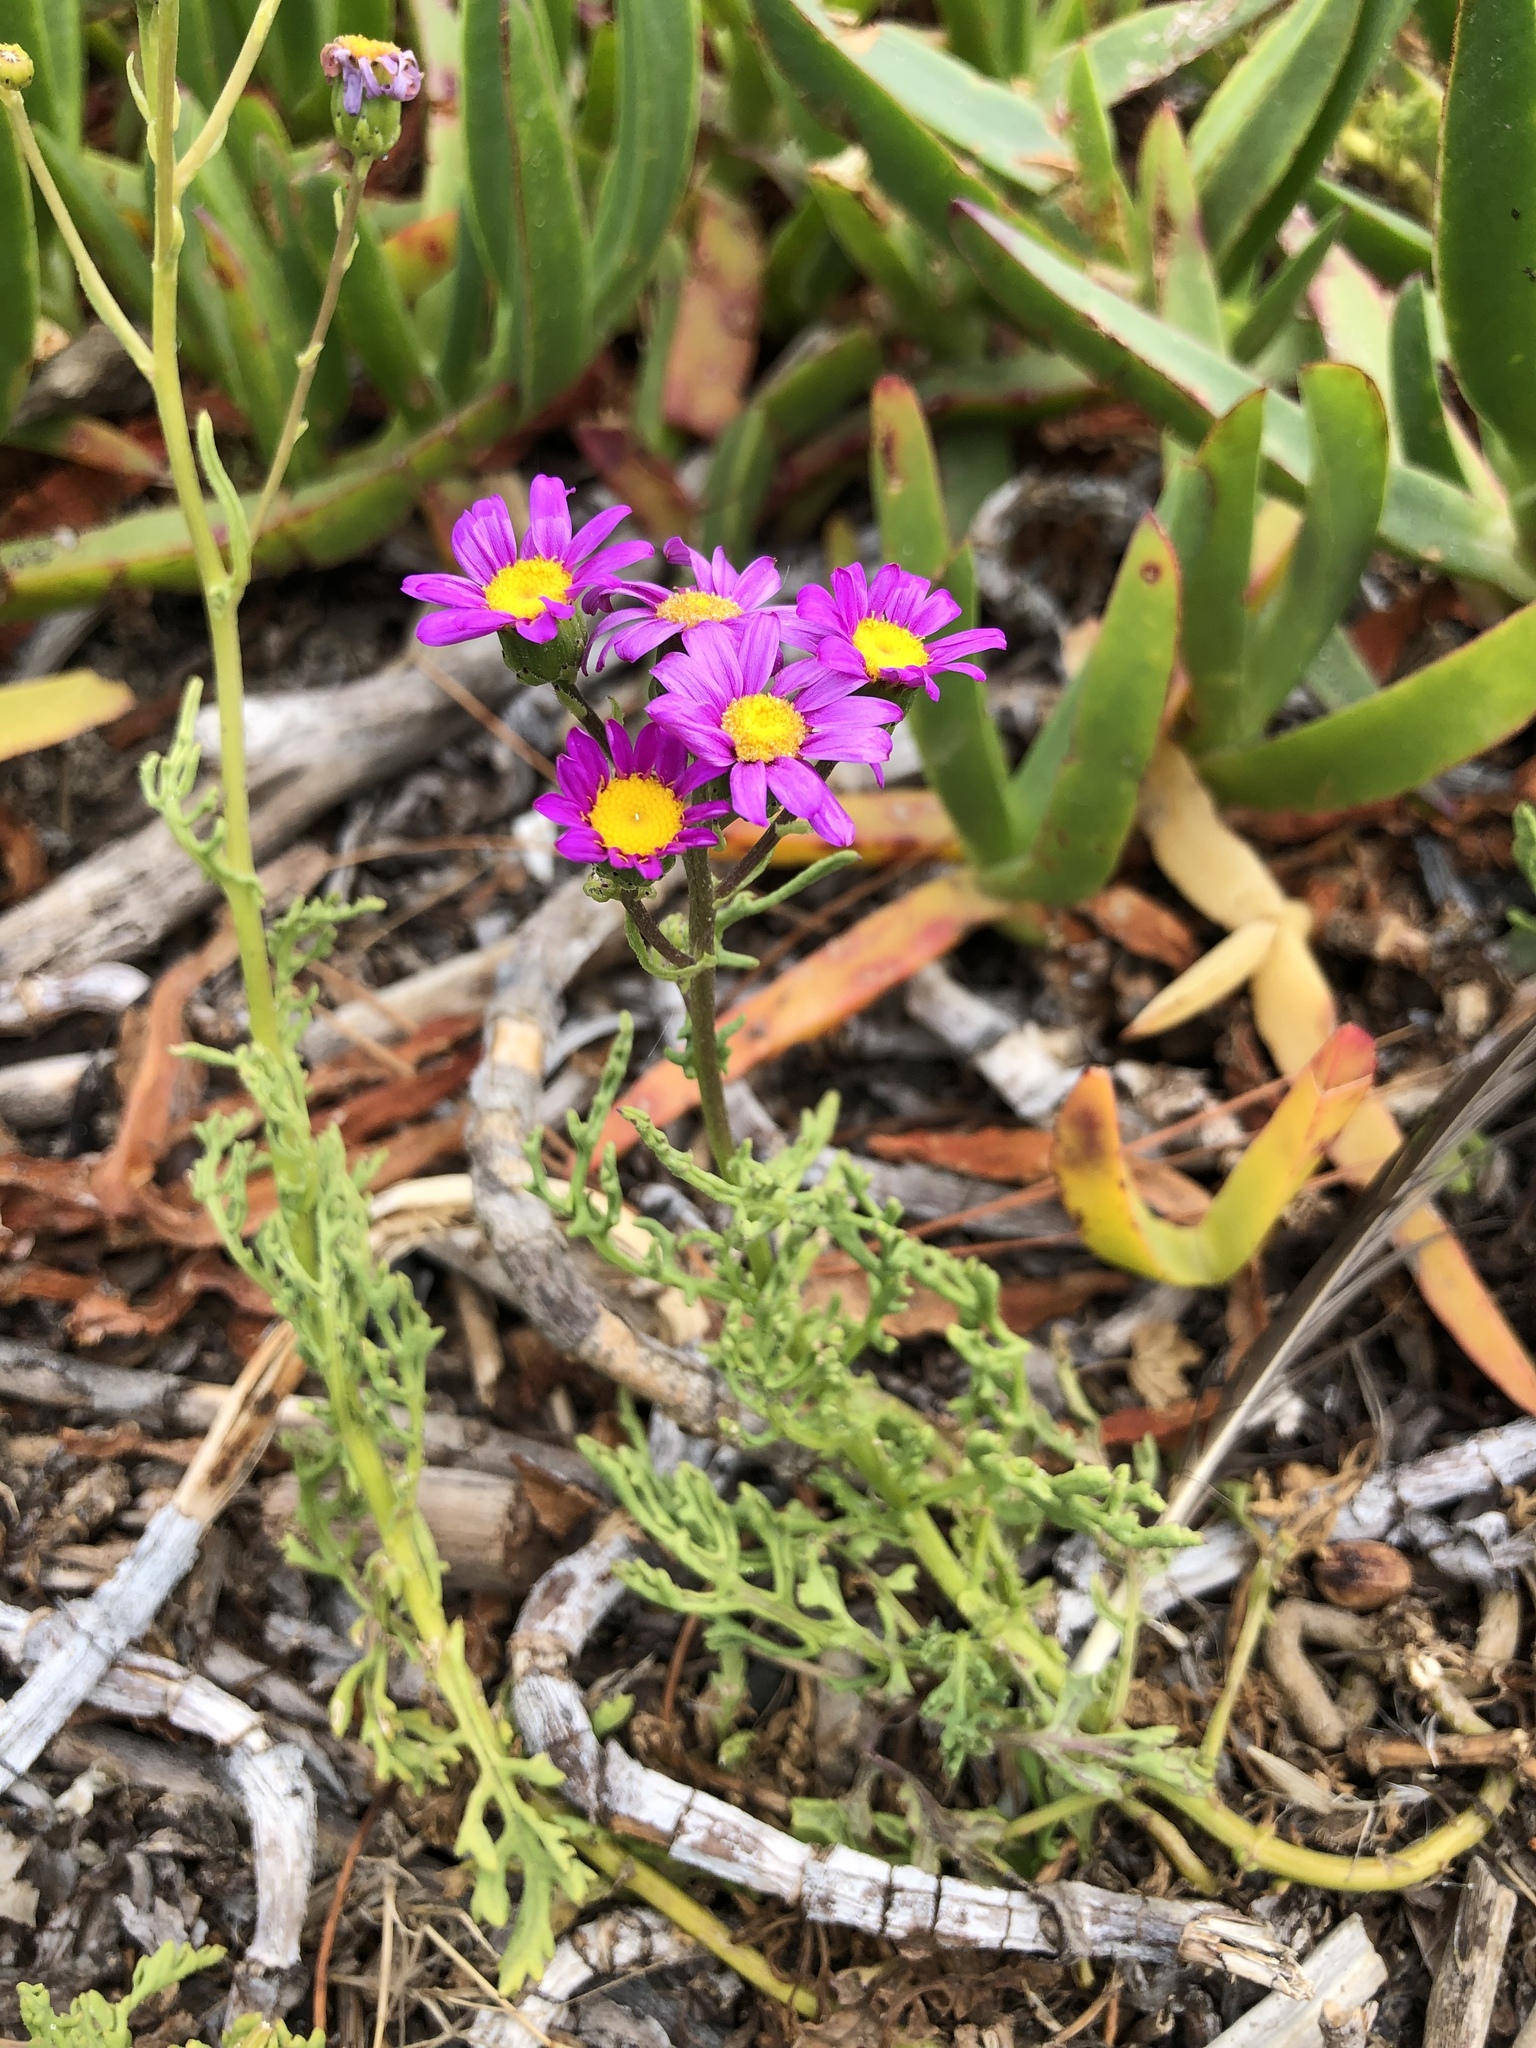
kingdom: Plantae
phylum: Tracheophyta
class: Magnoliopsida
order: Asterales
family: Asteraceae
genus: Senecio
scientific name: Senecio elegans
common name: Purple groundsel
